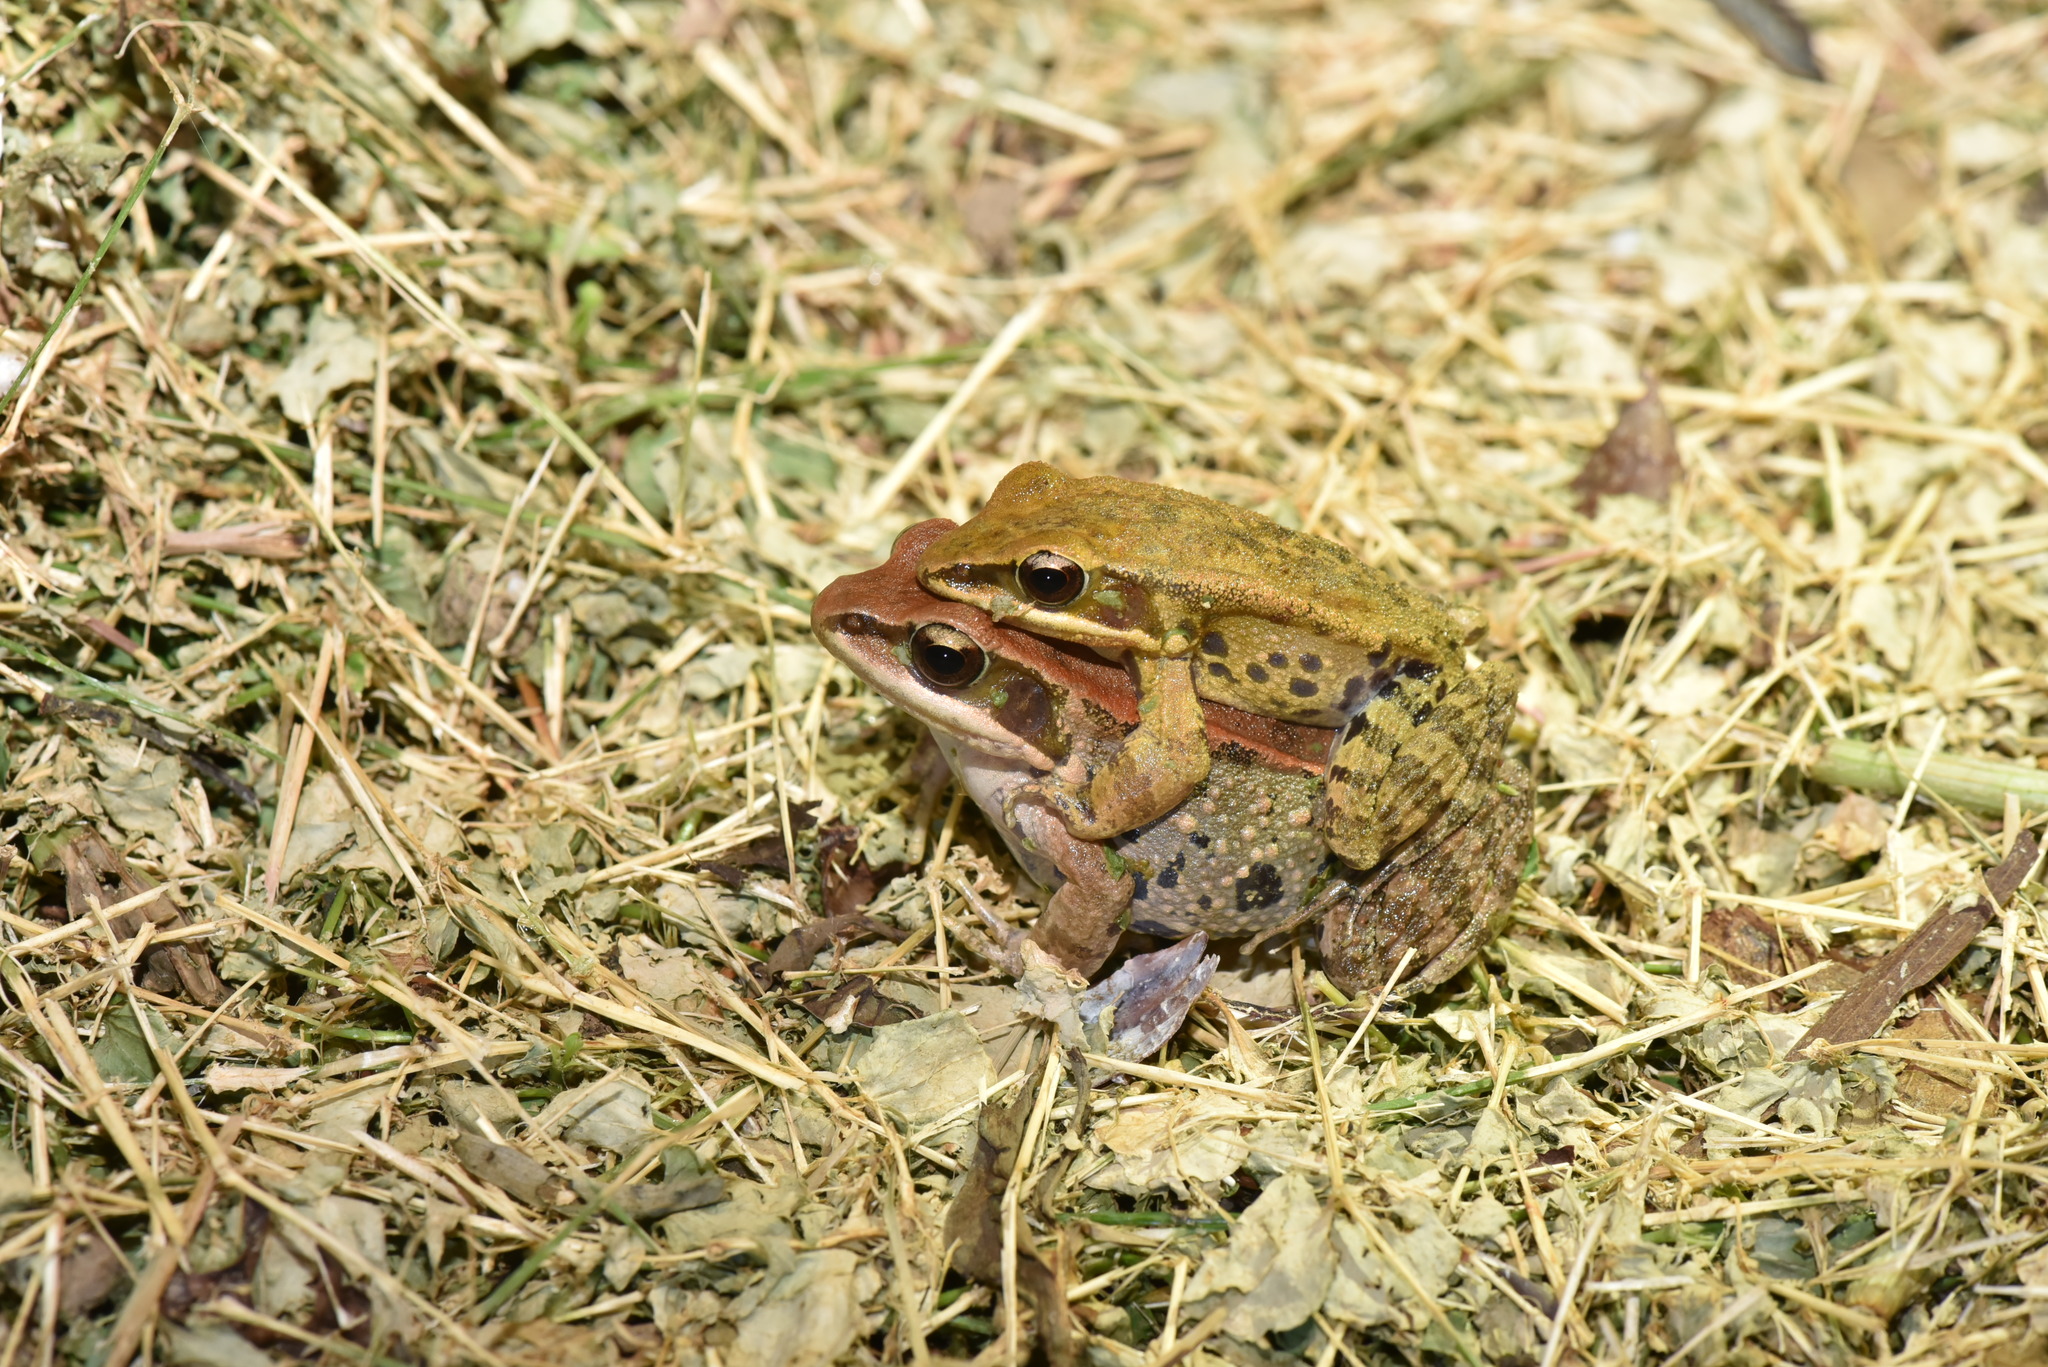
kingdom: Animalia
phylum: Chordata
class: Amphibia
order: Anura
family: Ranidae
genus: Hylarana
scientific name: Hylarana latouchii
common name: Broad-folded frog
